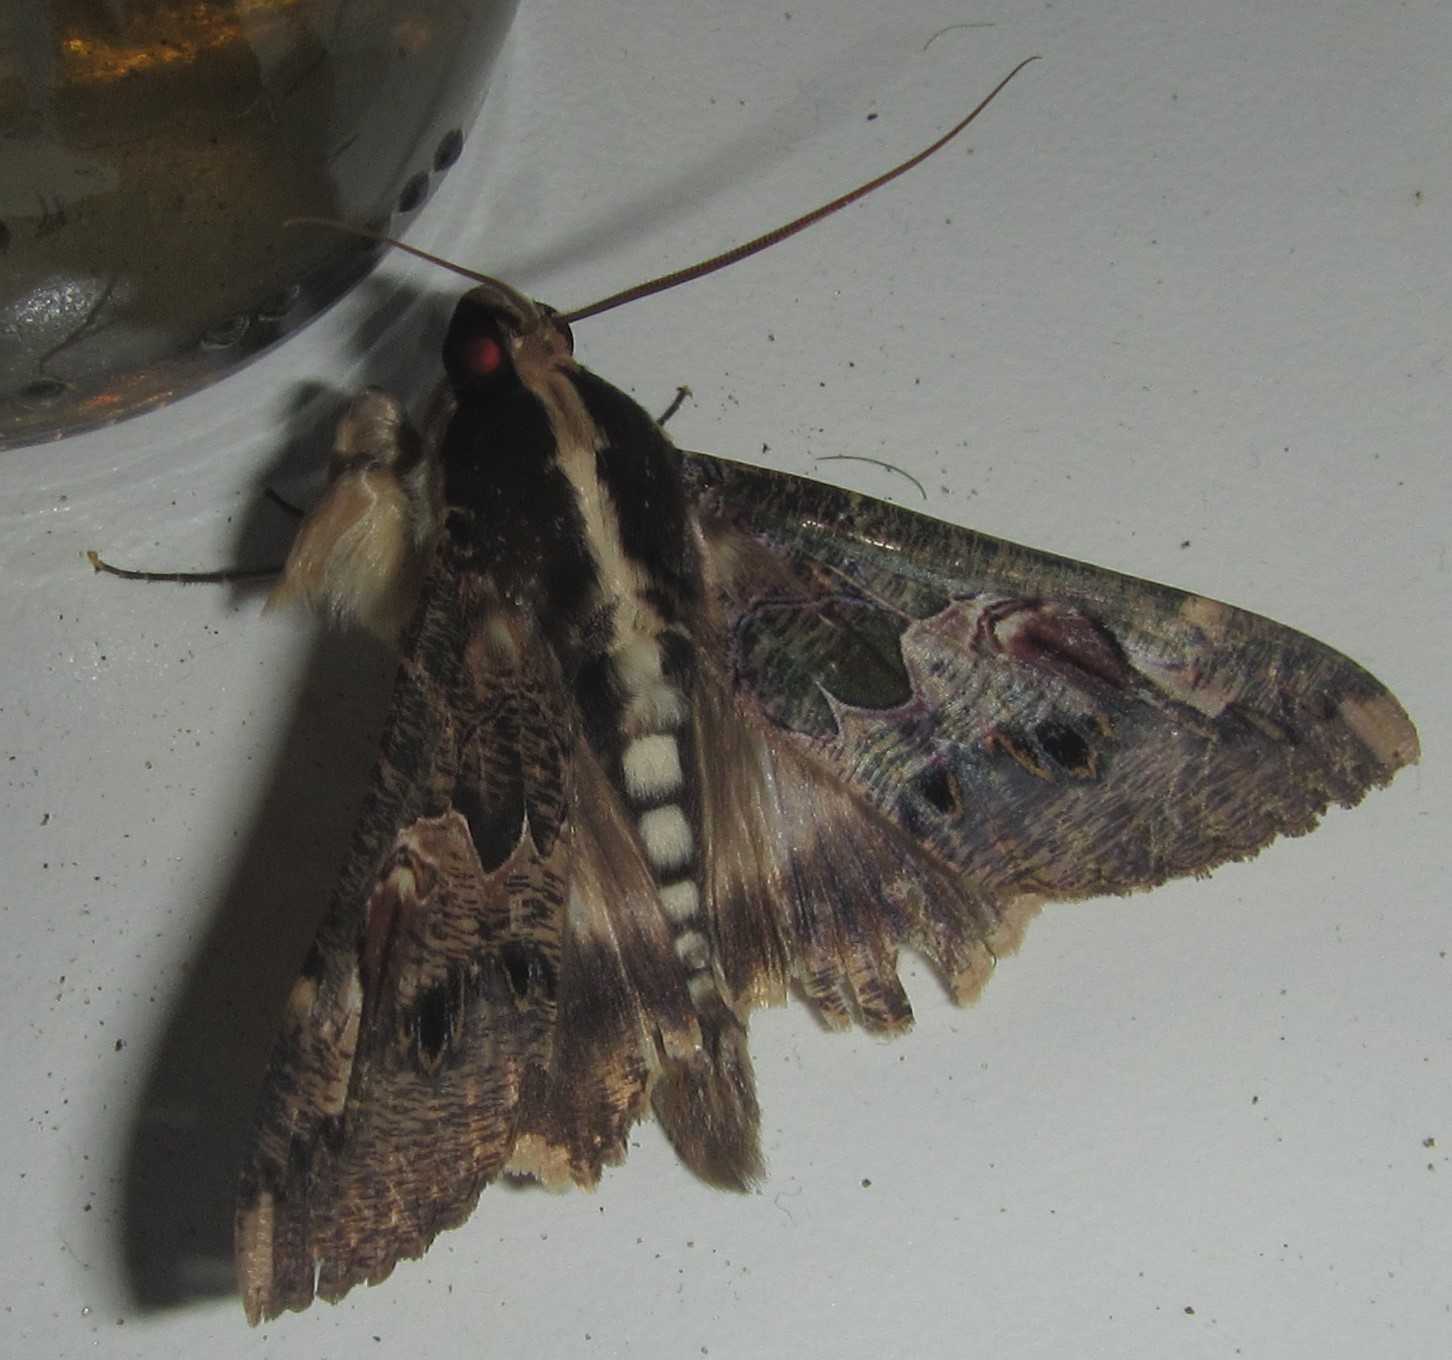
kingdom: Animalia
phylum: Arthropoda
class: Insecta
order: Lepidoptera
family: Erebidae
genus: Sphingomorpha
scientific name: Sphingomorpha chlorea
